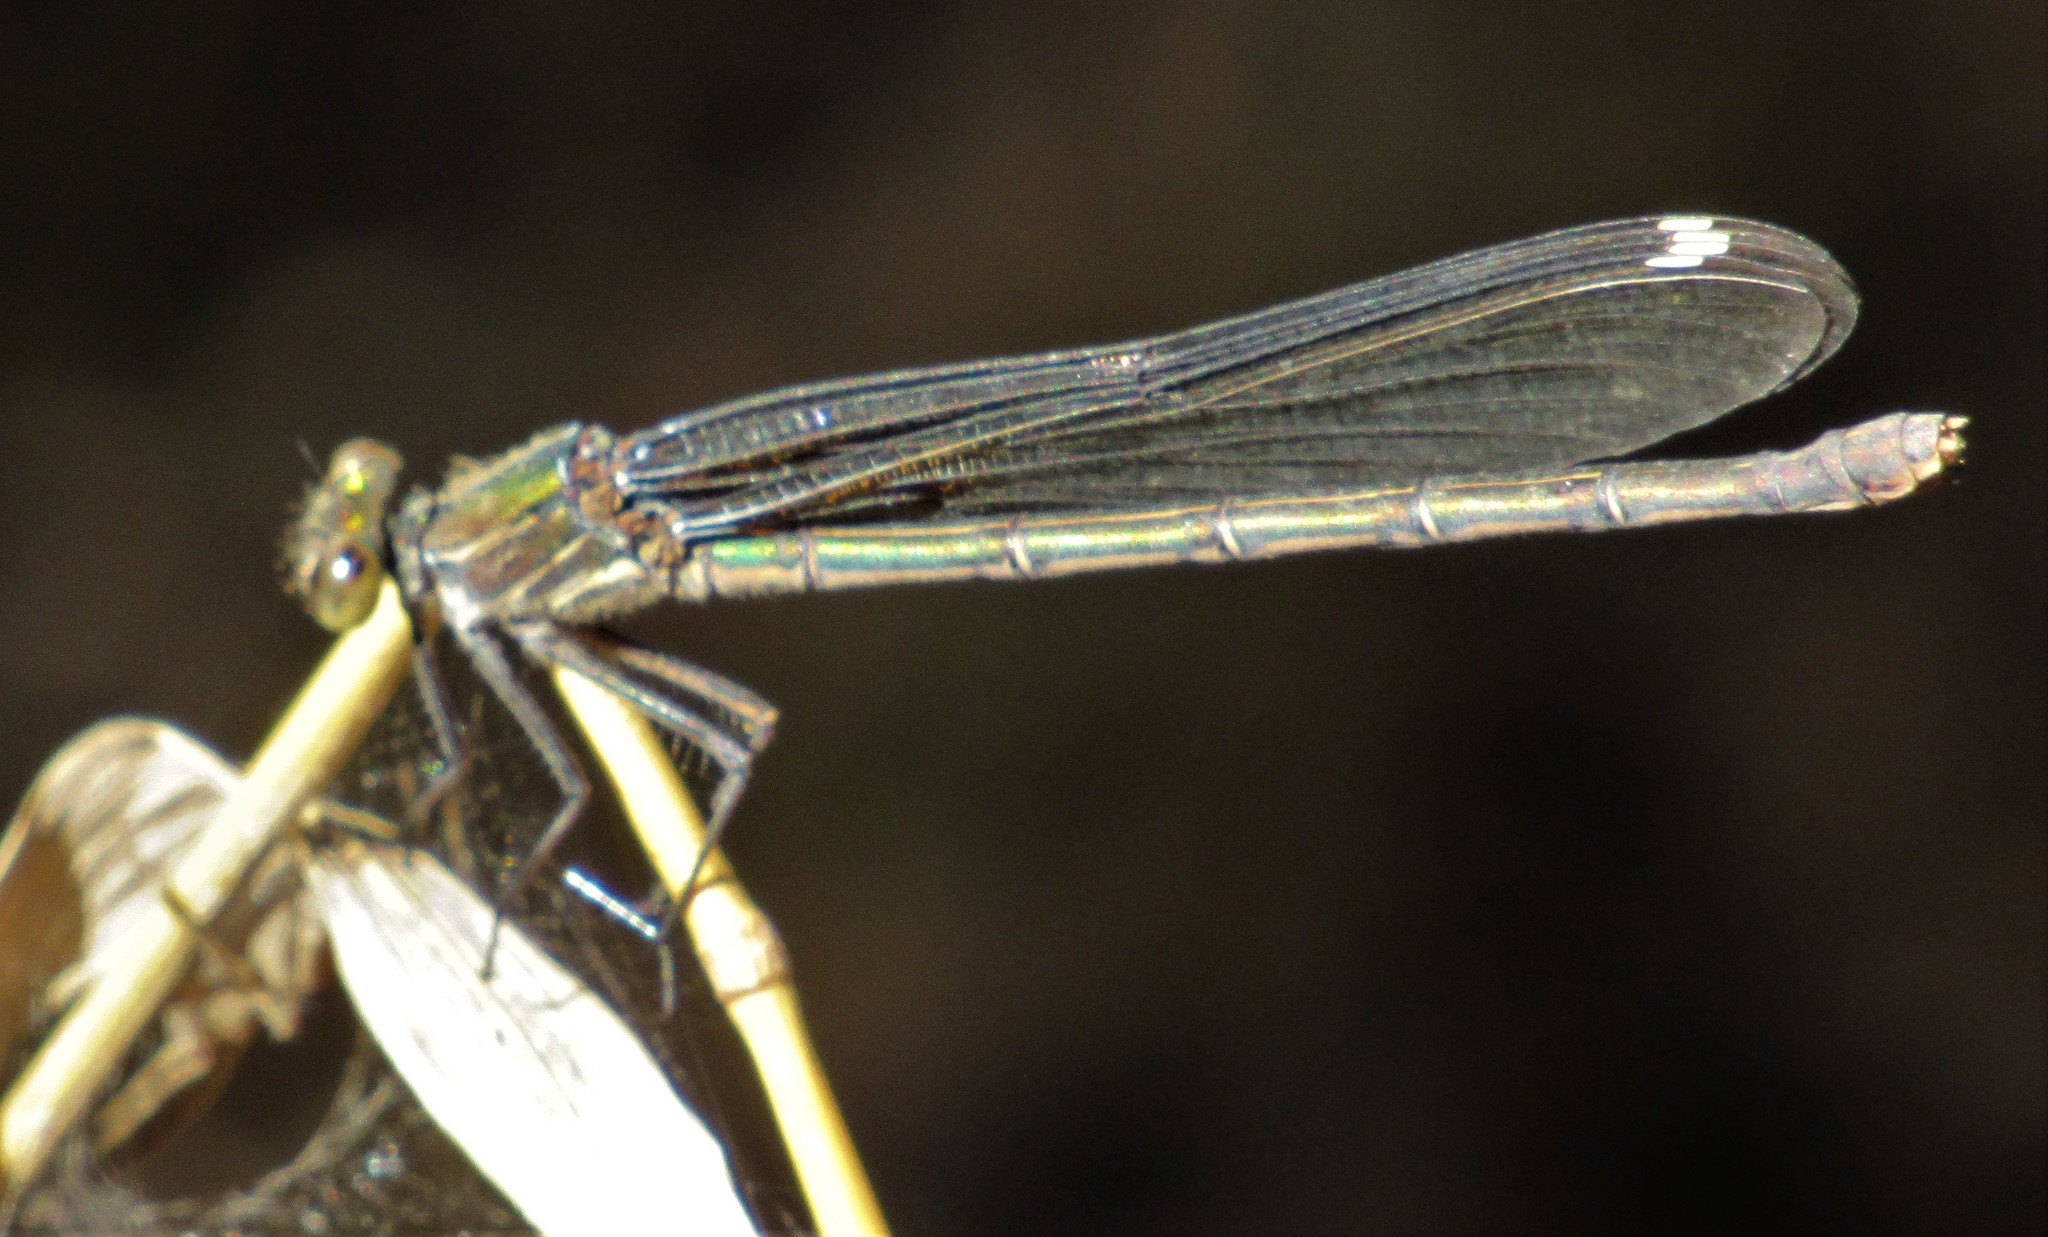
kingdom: Animalia
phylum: Arthropoda
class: Insecta
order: Odonata
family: Calopterygidae
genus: Hetaerina
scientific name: Hetaerina americana
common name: American rubyspot
